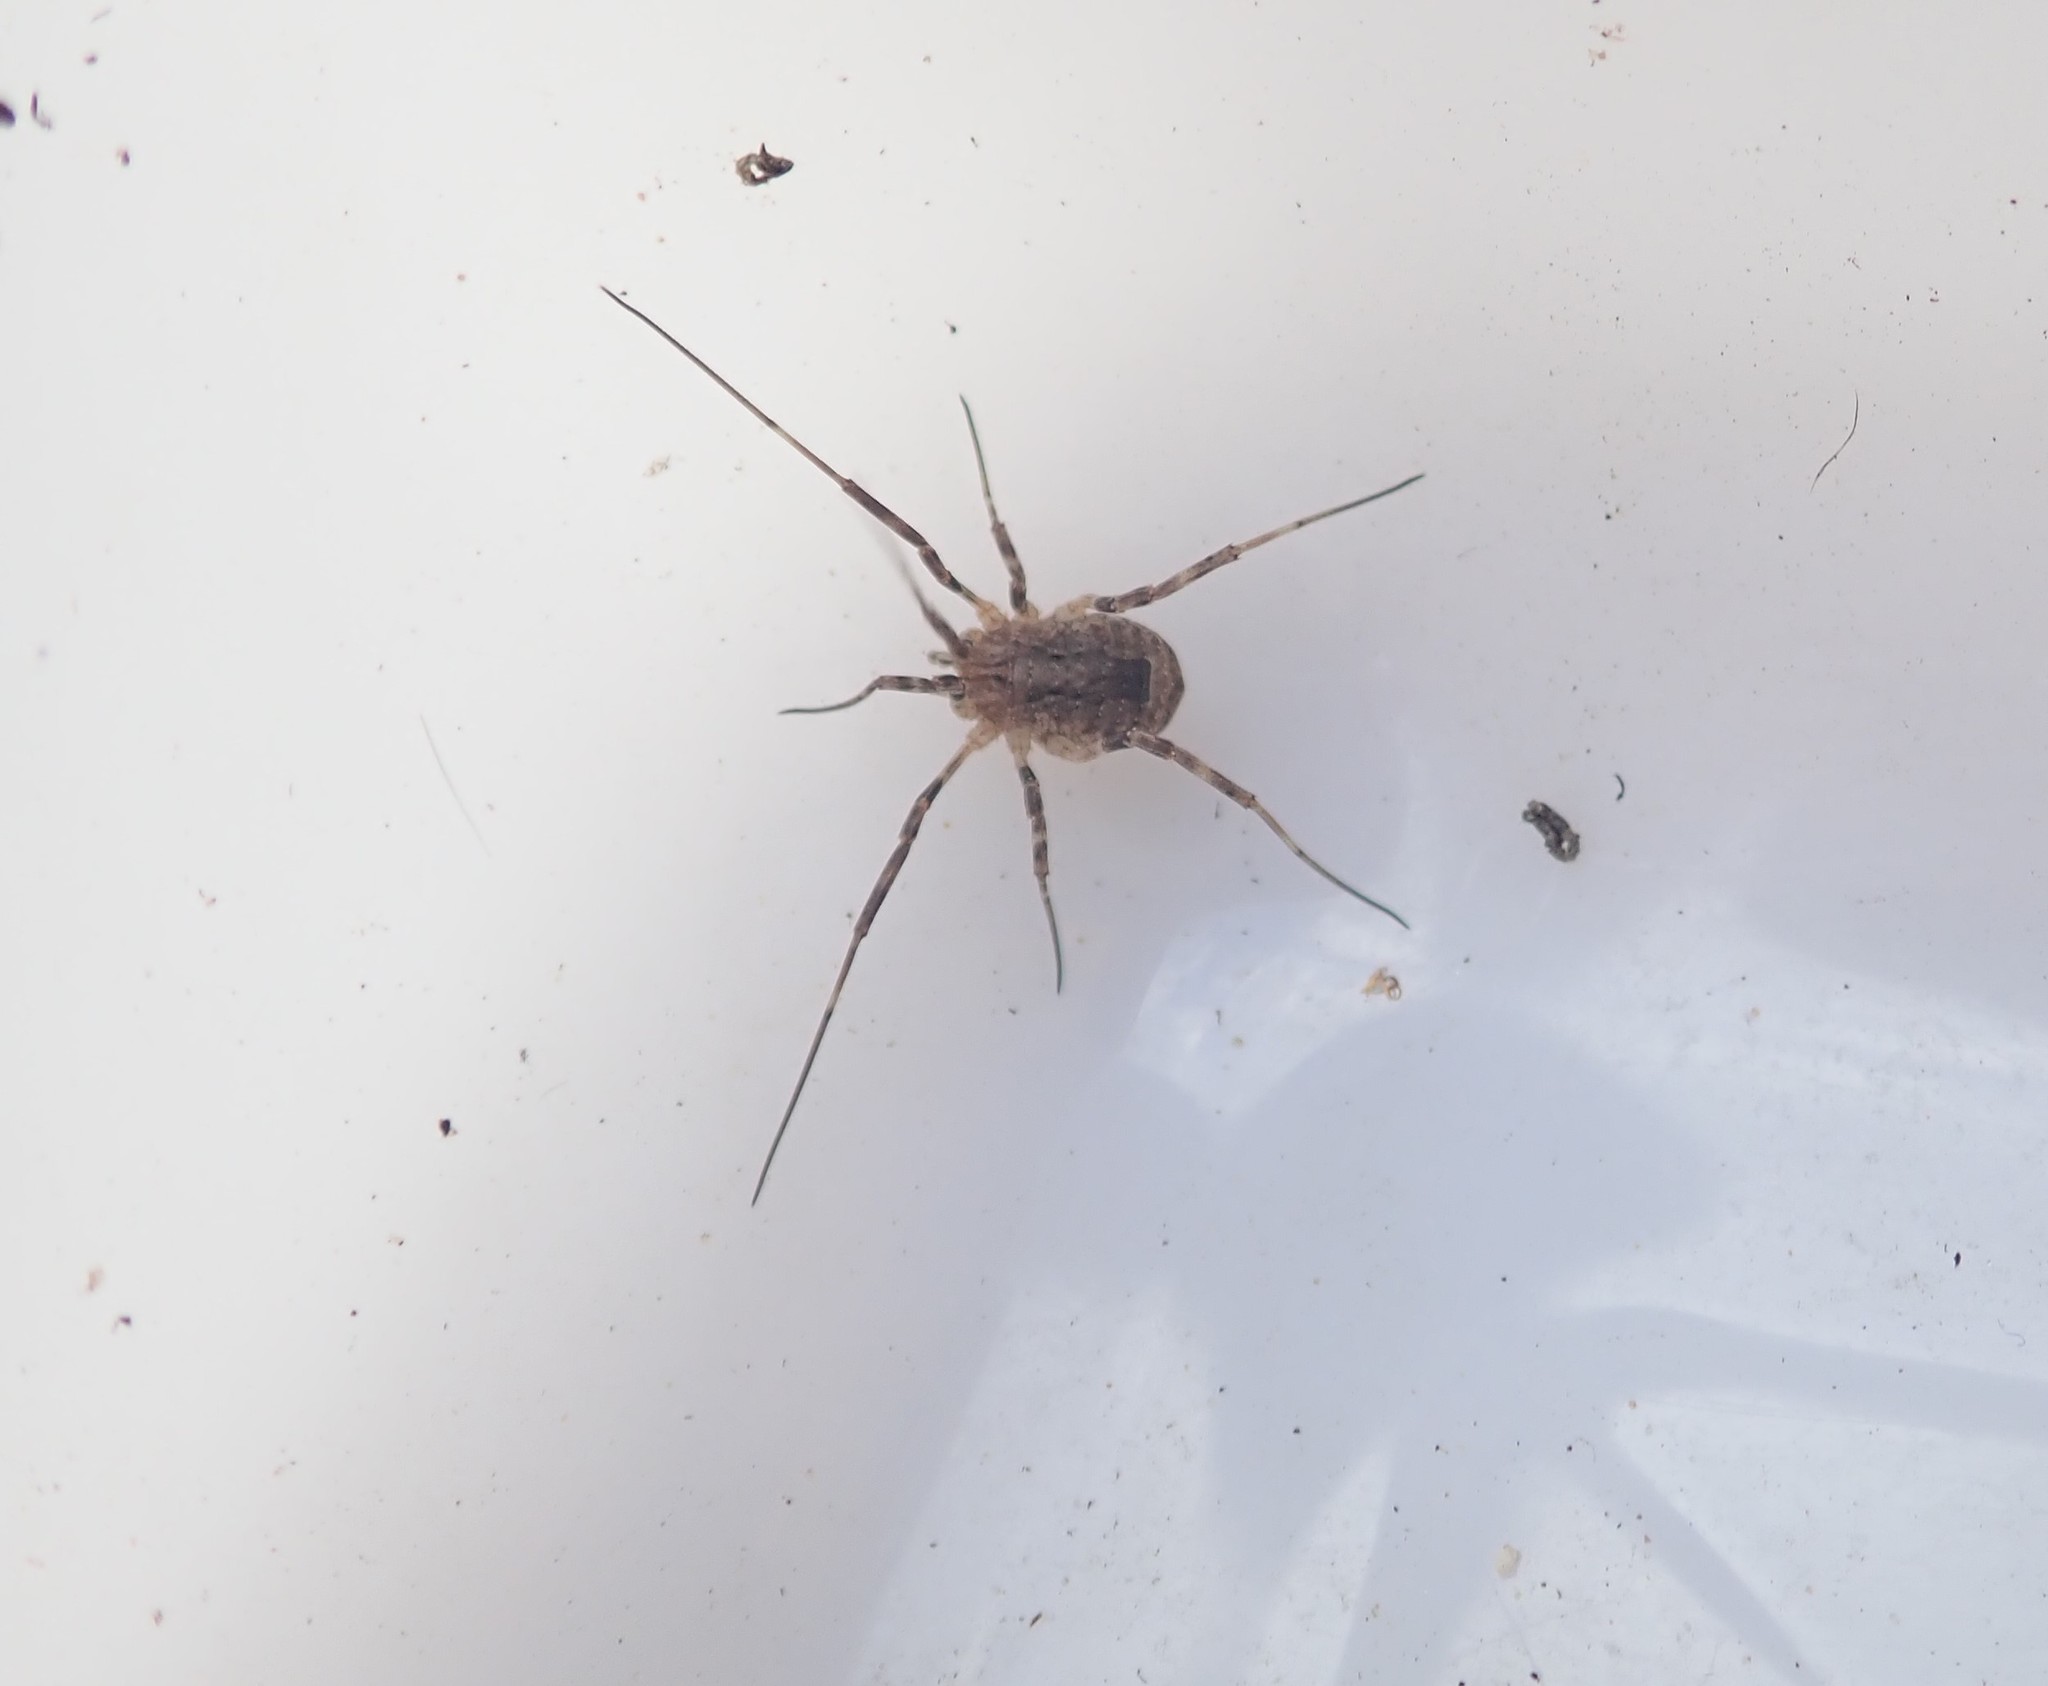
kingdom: Animalia
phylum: Arthropoda
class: Arachnida
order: Opiliones
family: Phalangiidae
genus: Odiellus
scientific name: Odiellus spinosus
